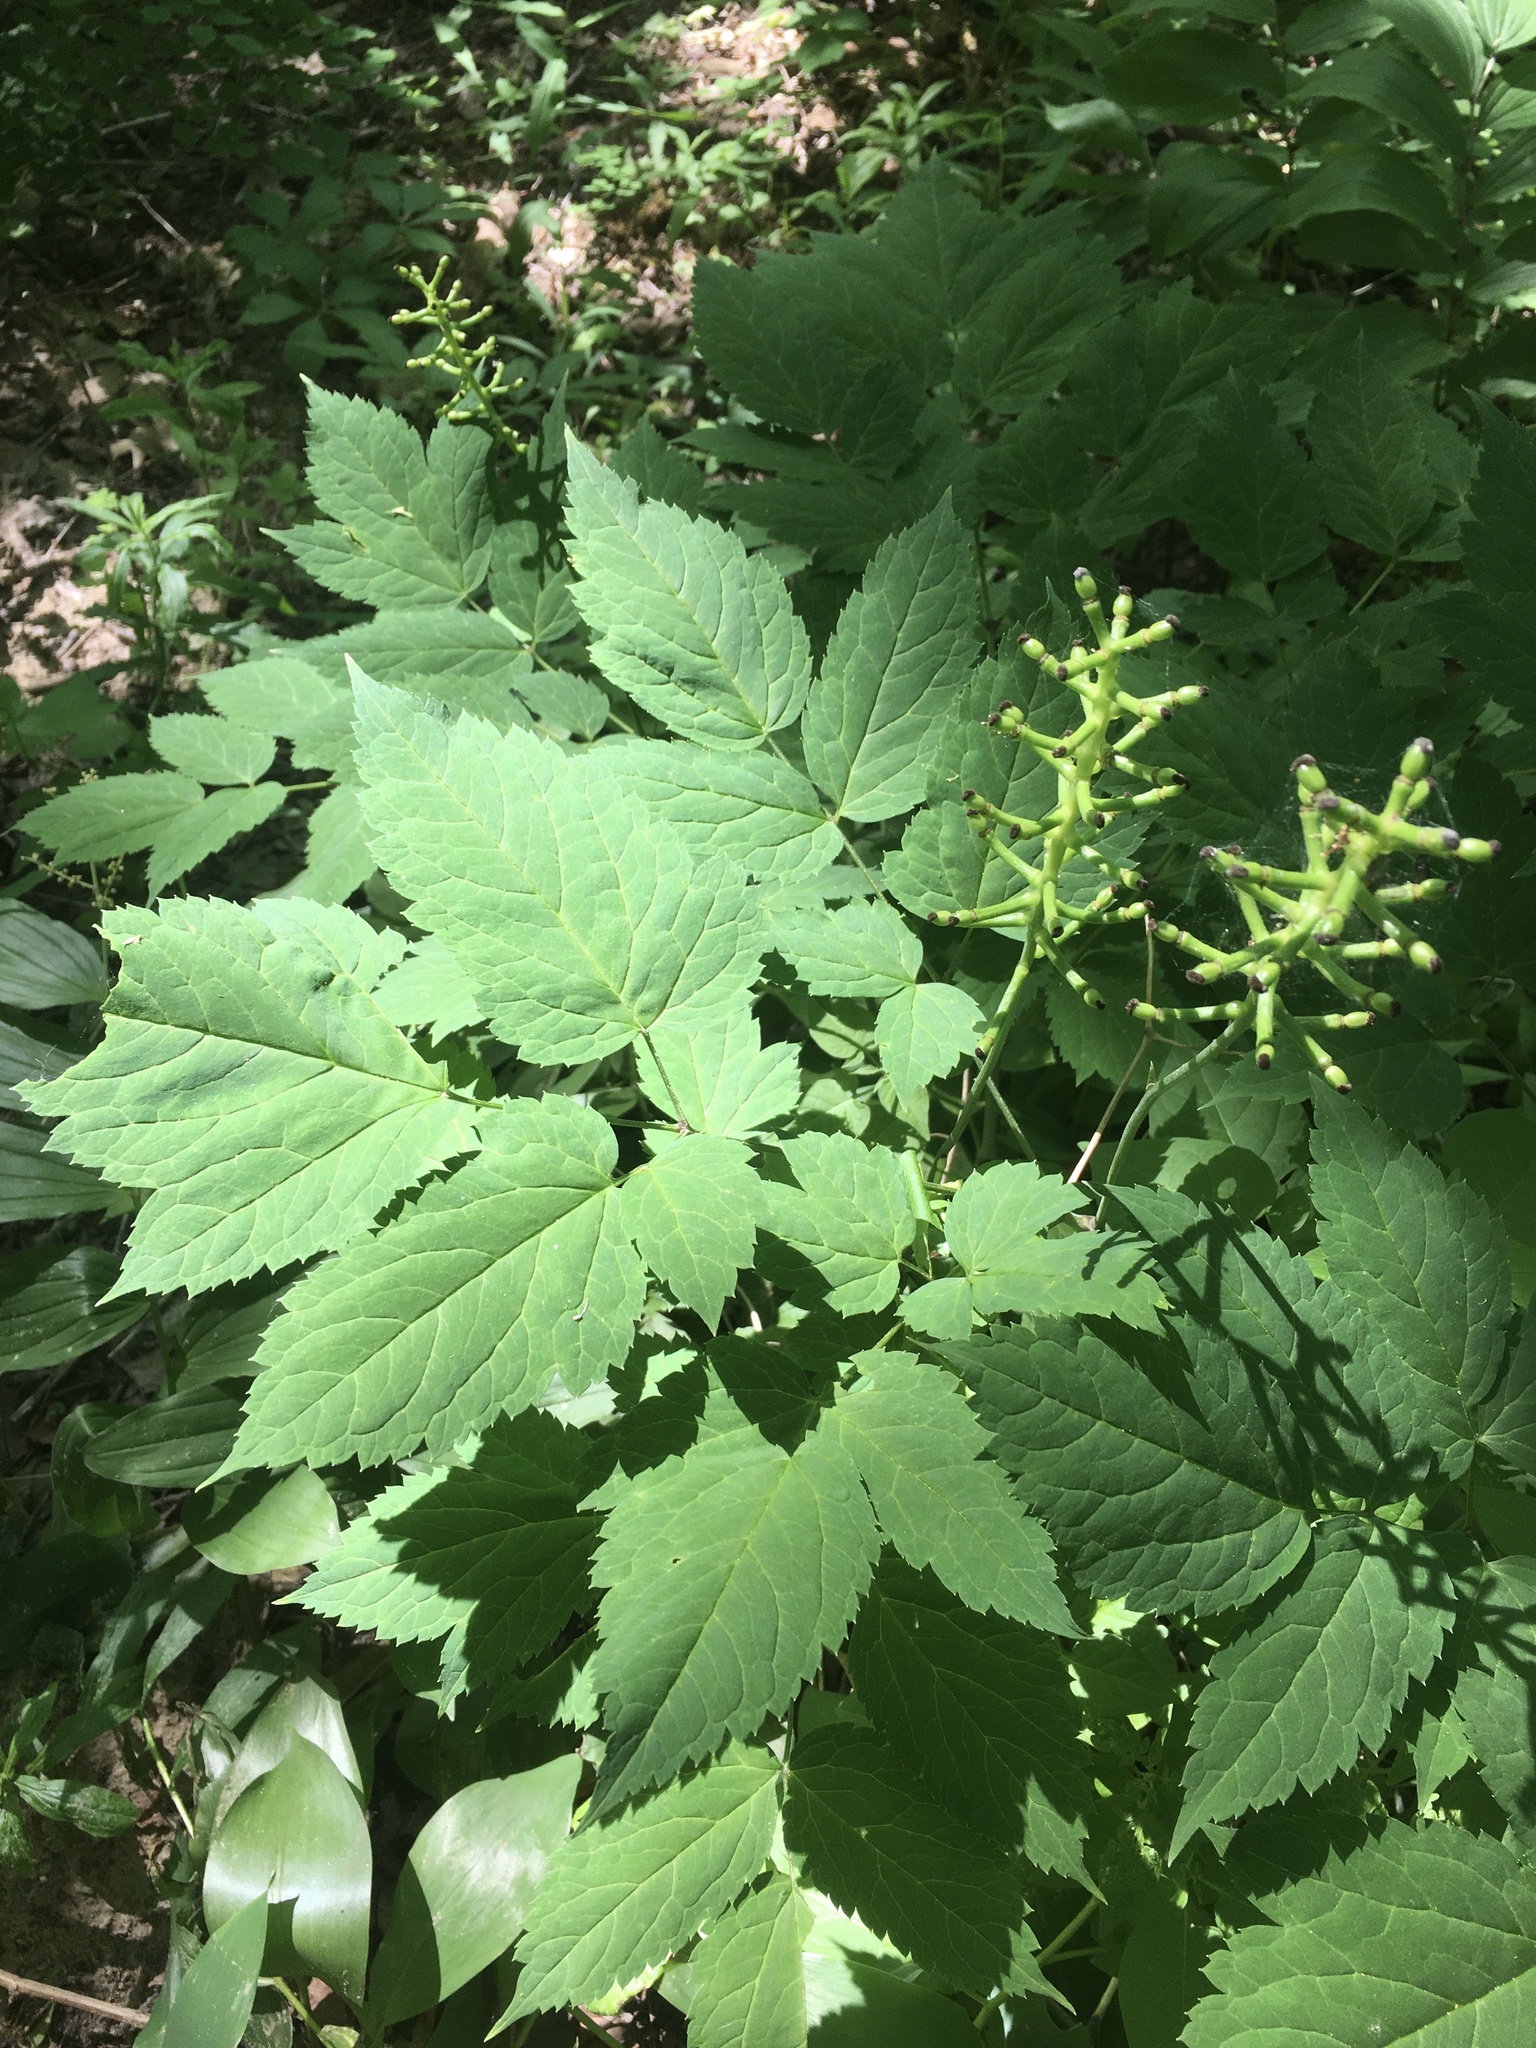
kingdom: Plantae
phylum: Tracheophyta
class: Magnoliopsida
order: Ranunculales
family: Ranunculaceae
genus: Actaea
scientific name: Actaea pachypoda
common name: Doll's-eyes
